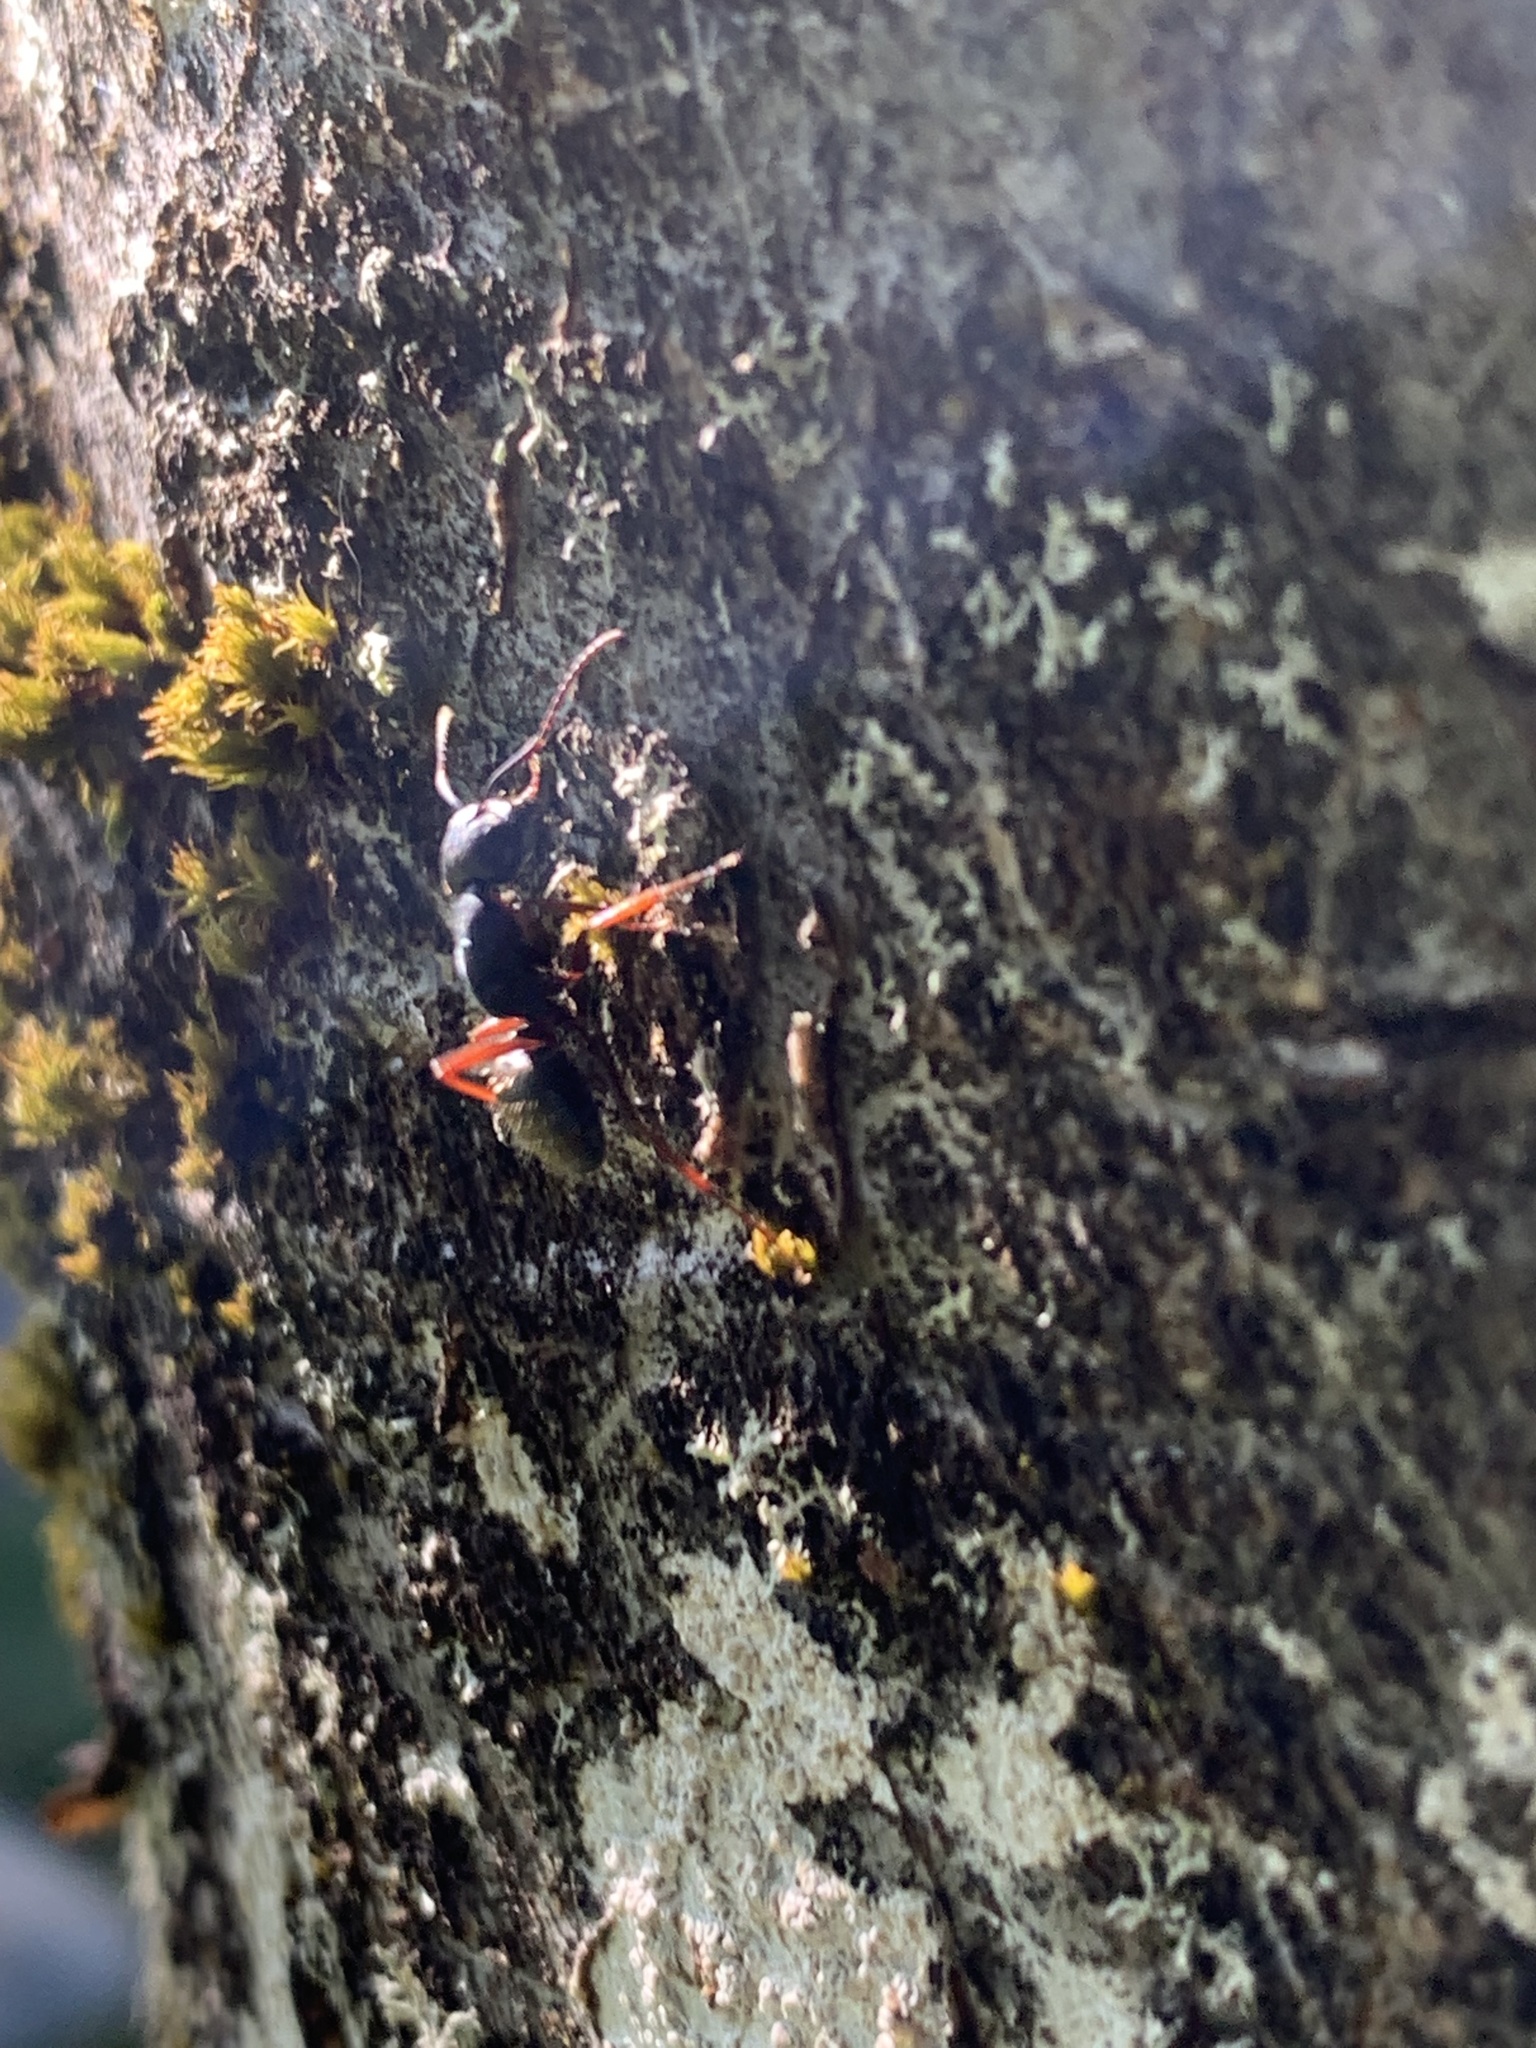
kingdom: Animalia
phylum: Arthropoda
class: Insecta
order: Hymenoptera
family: Formicidae
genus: Camponotus
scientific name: Camponotus modoc
